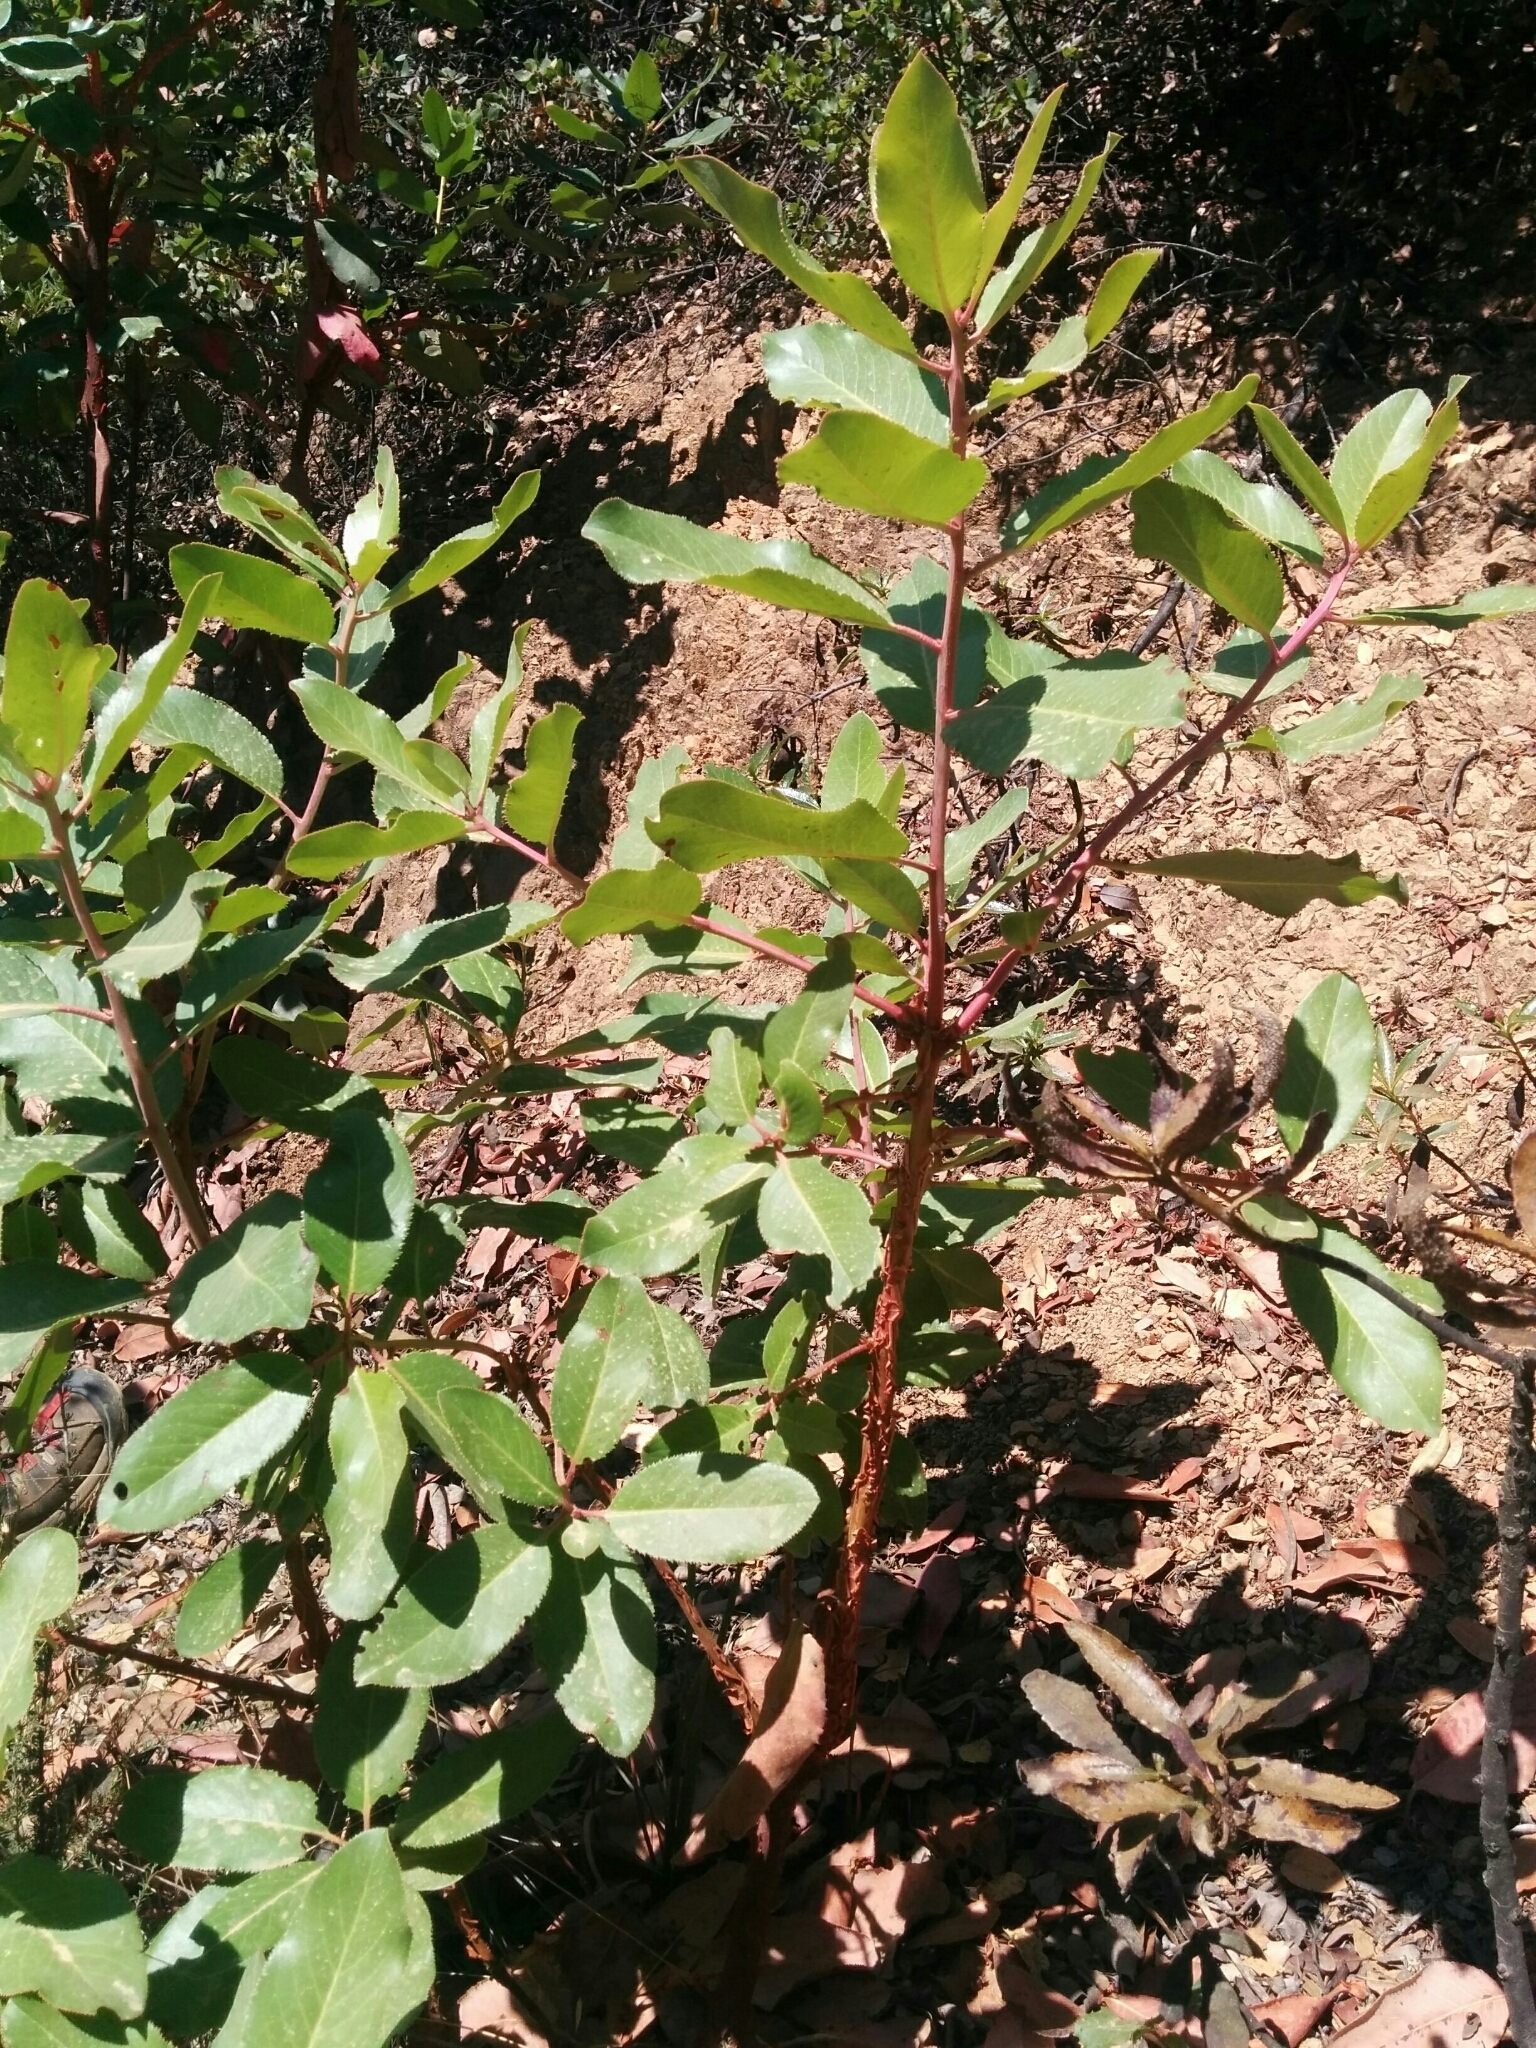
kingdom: Plantae
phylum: Tracheophyta
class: Magnoliopsida
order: Ericales
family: Ericaceae
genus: Arbutus
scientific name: Arbutus menziesii
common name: Pacific madrone
